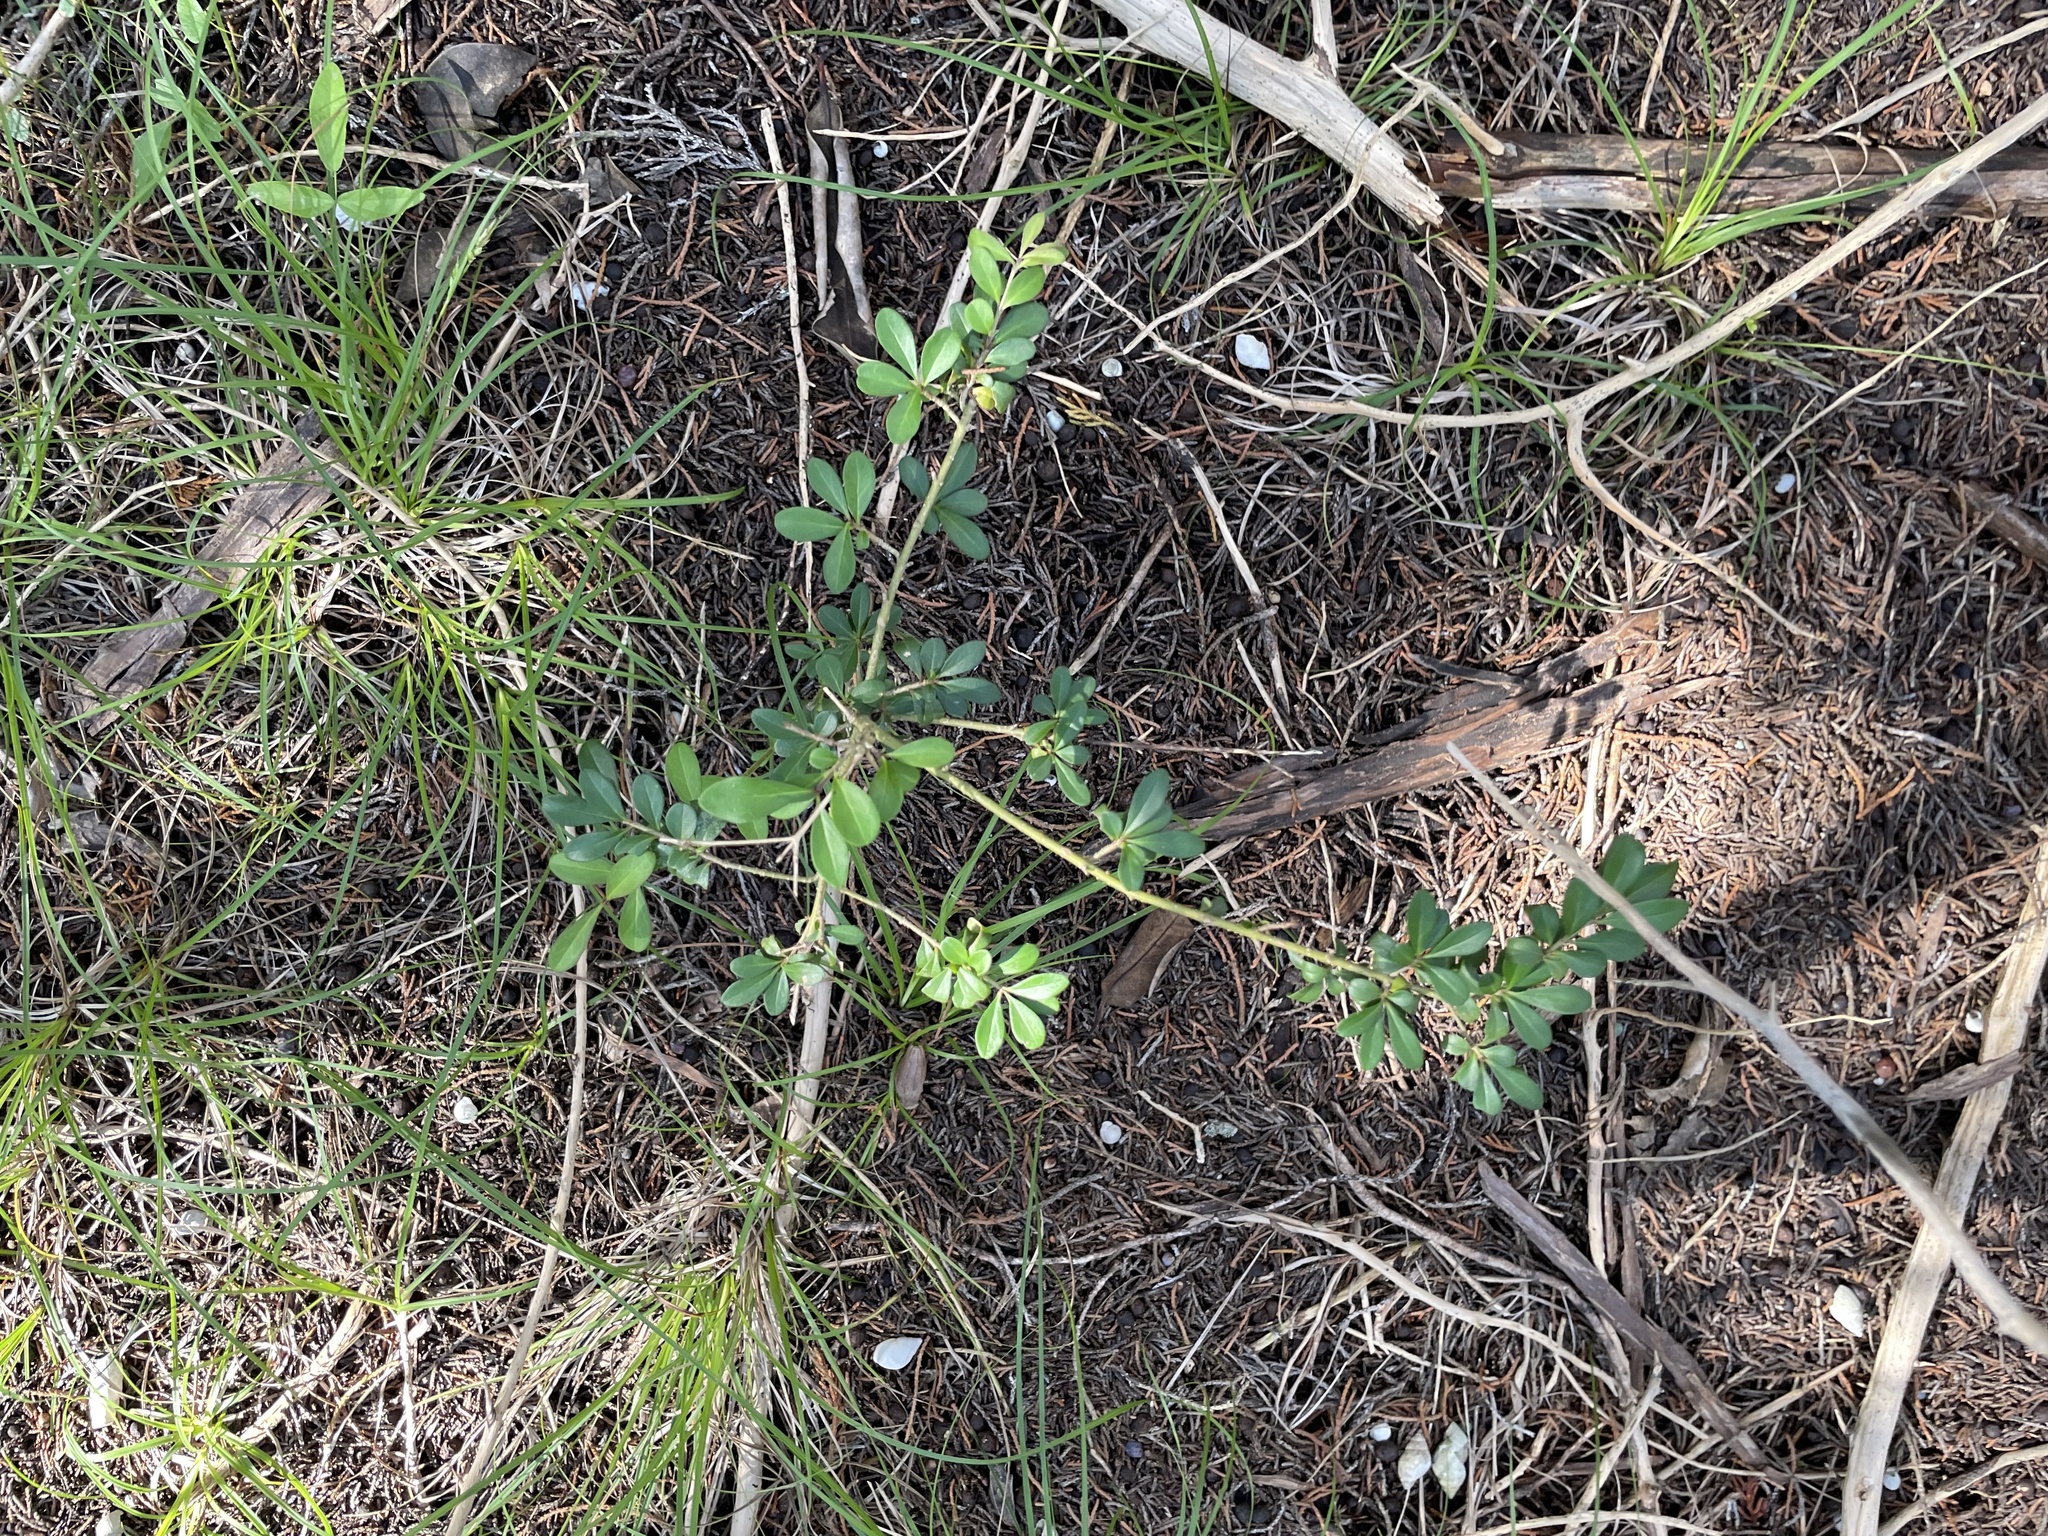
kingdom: Plantae
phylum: Tracheophyta
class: Magnoliopsida
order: Lamiales
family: Oleaceae
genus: Ligustrum
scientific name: Ligustrum quihoui
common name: Waxyleaf privet
